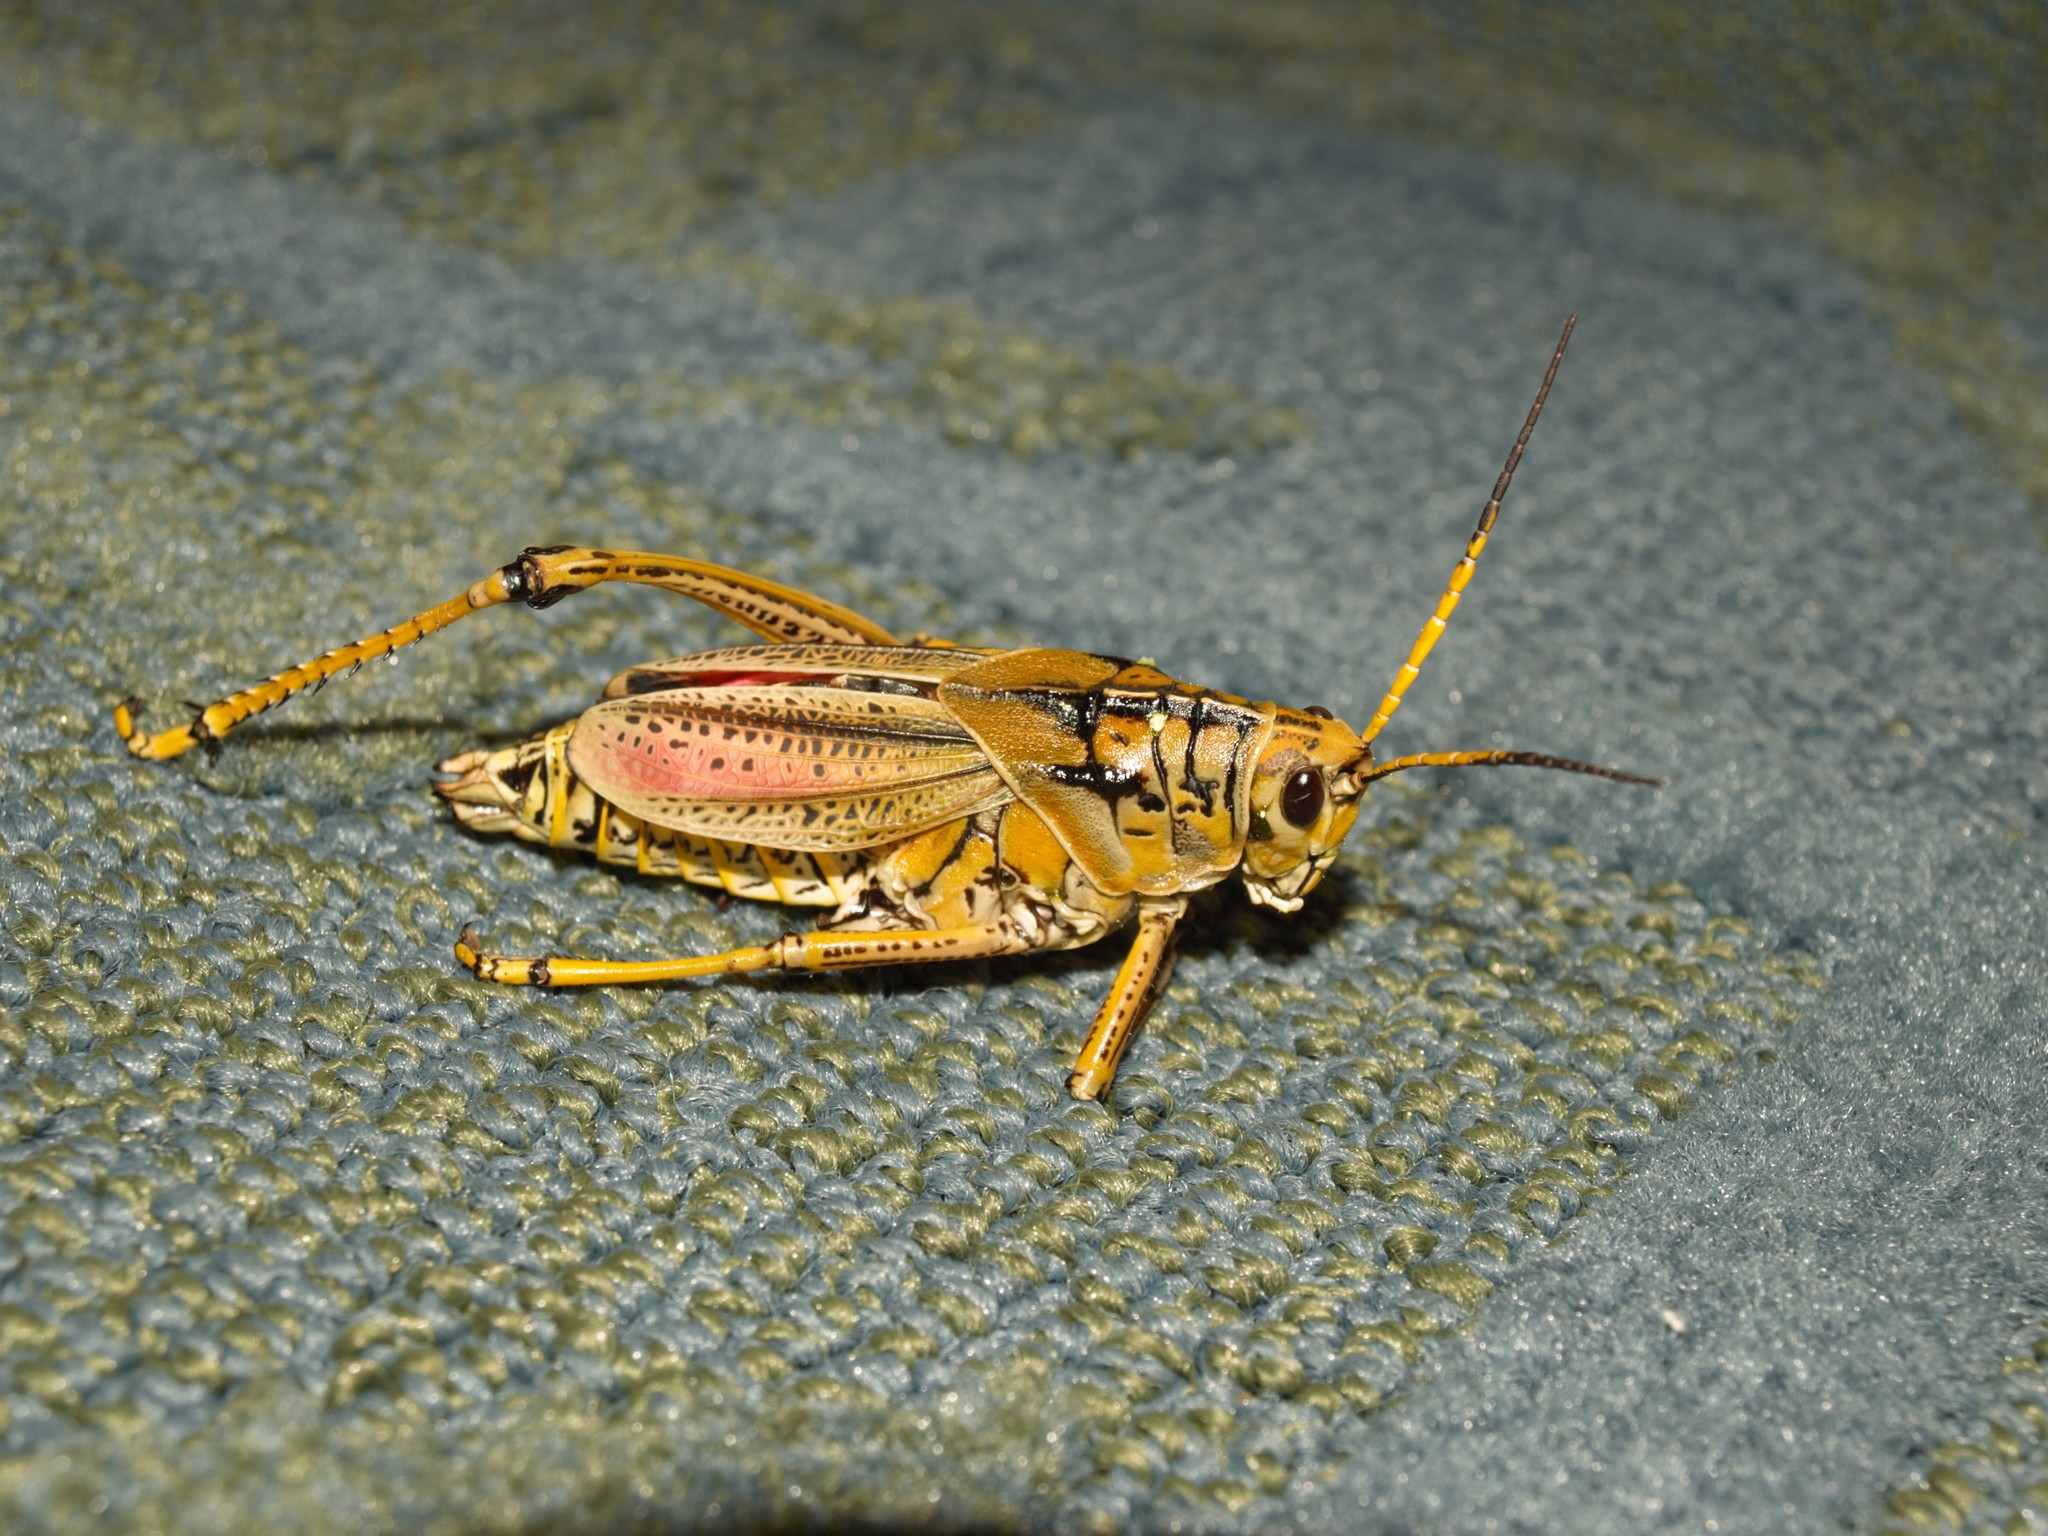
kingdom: Animalia
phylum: Arthropoda
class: Insecta
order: Orthoptera
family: Romaleidae
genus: Romalea
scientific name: Romalea microptera
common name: Eastern lubber grasshopper
